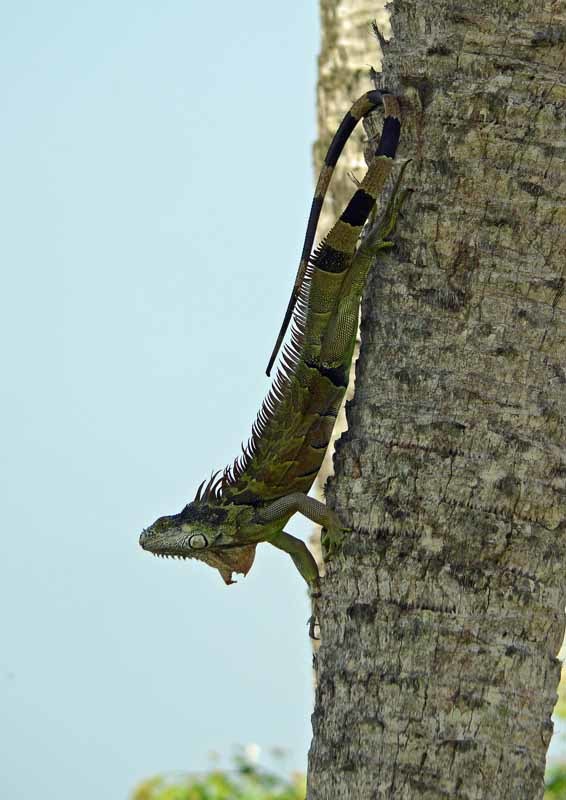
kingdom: Animalia
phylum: Chordata
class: Squamata
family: Iguanidae
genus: Iguana
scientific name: Iguana iguana
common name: Green iguana
